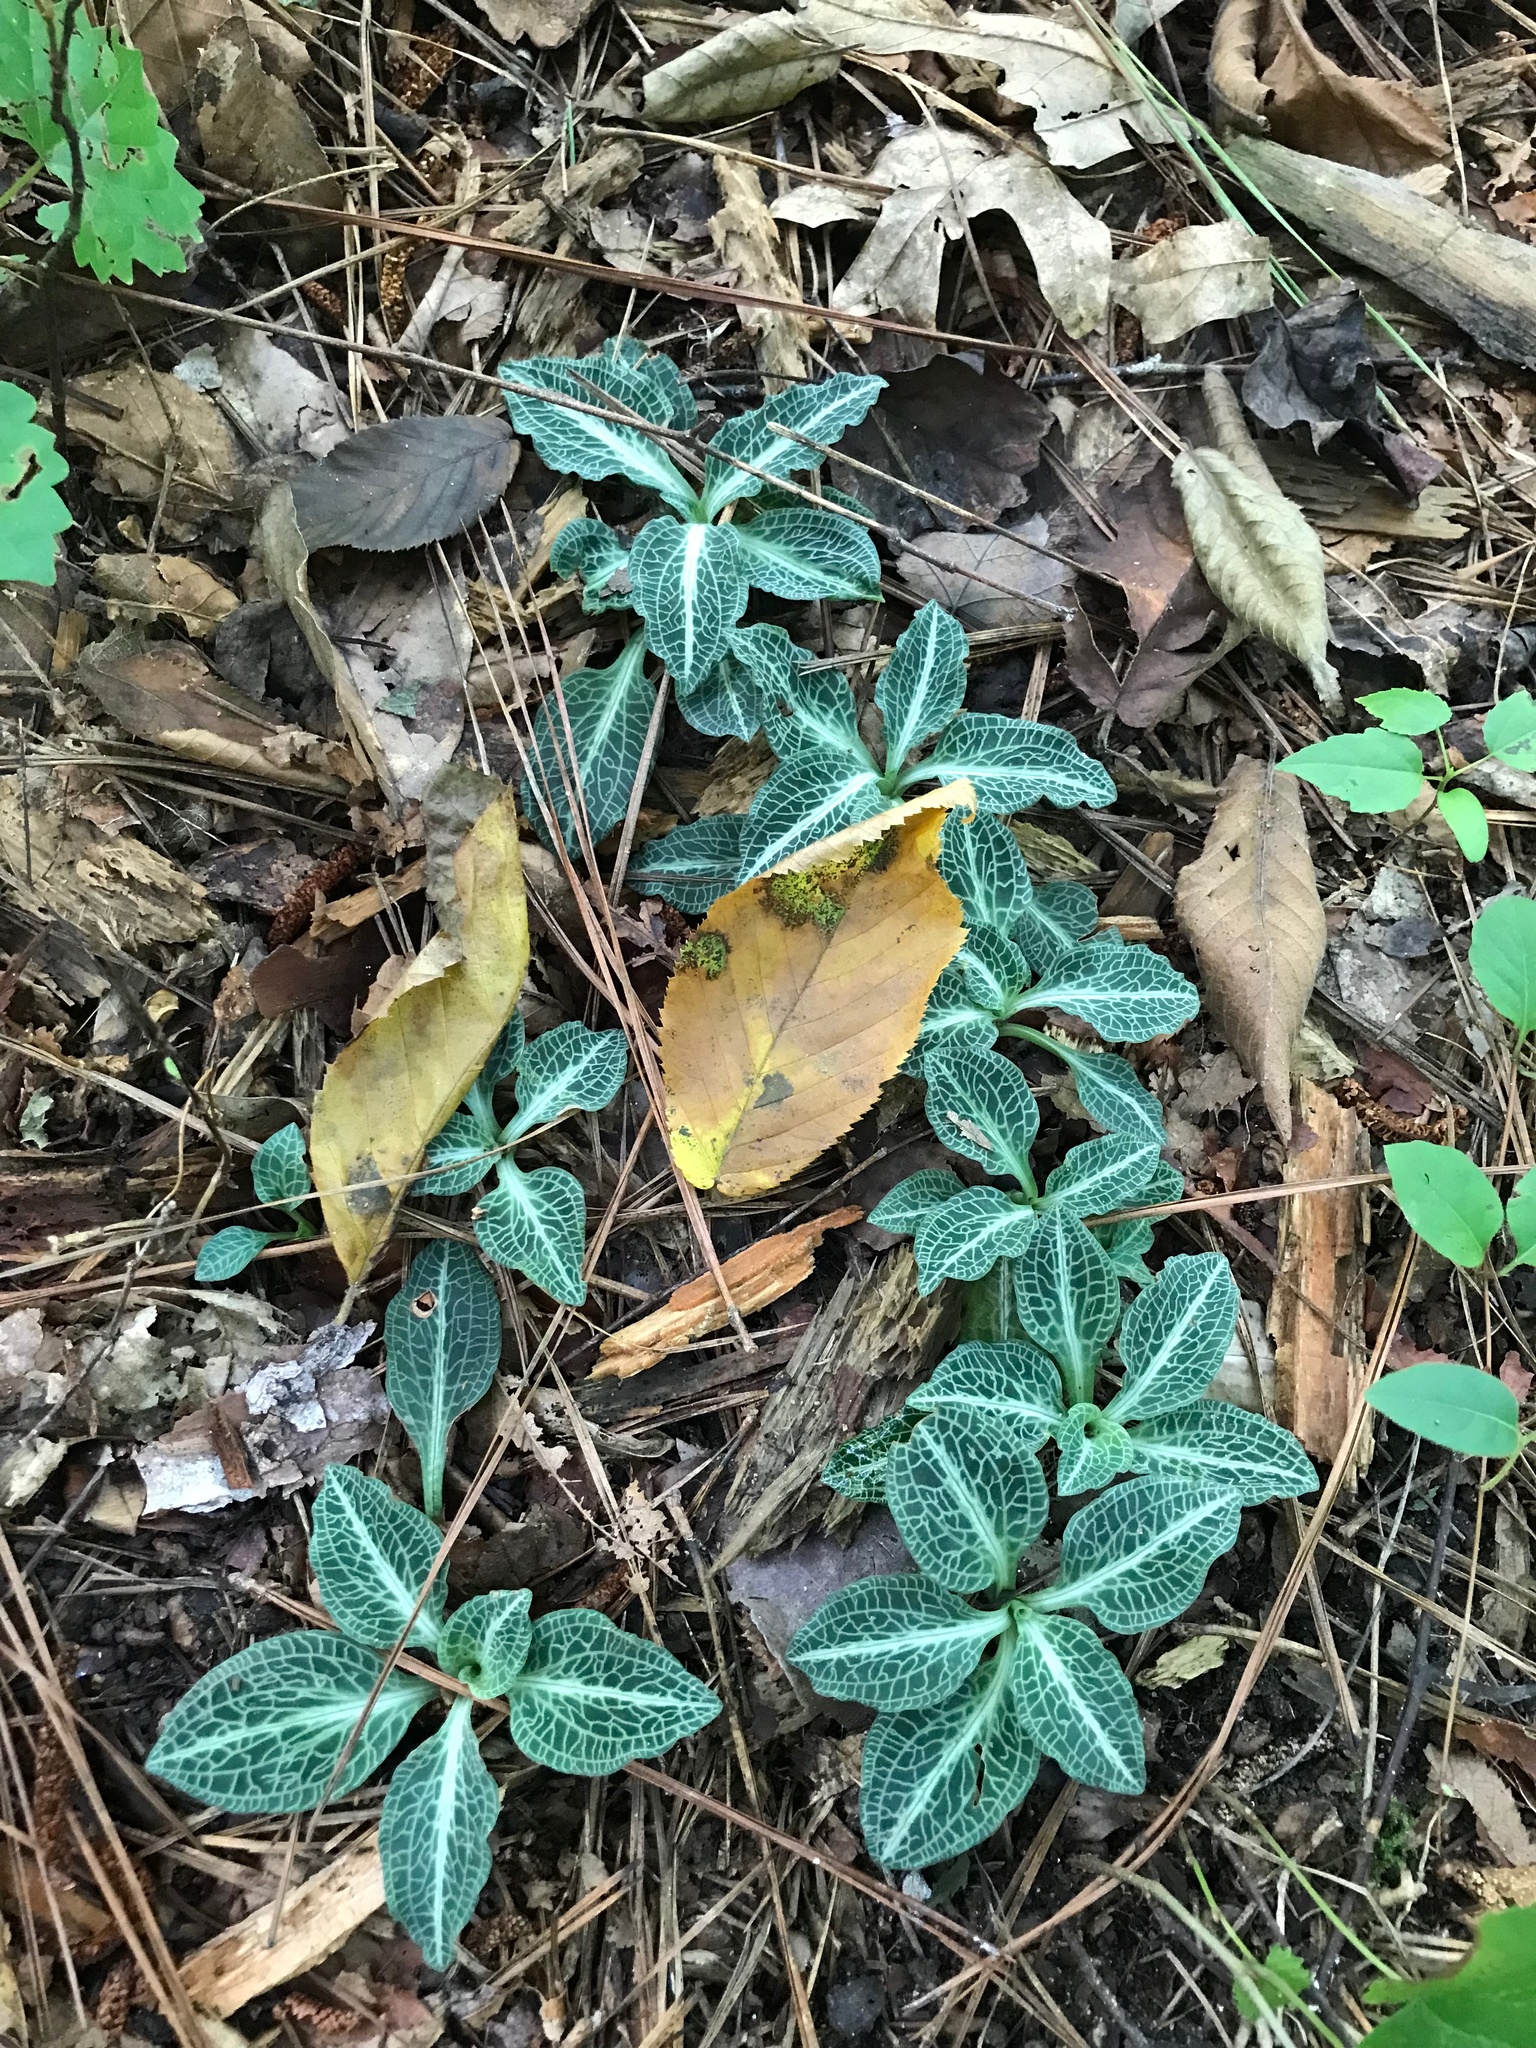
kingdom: Plantae
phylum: Tracheophyta
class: Liliopsida
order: Asparagales
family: Orchidaceae
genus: Goodyera
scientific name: Goodyera pubescens
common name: Downy rattlesnake-plantain
